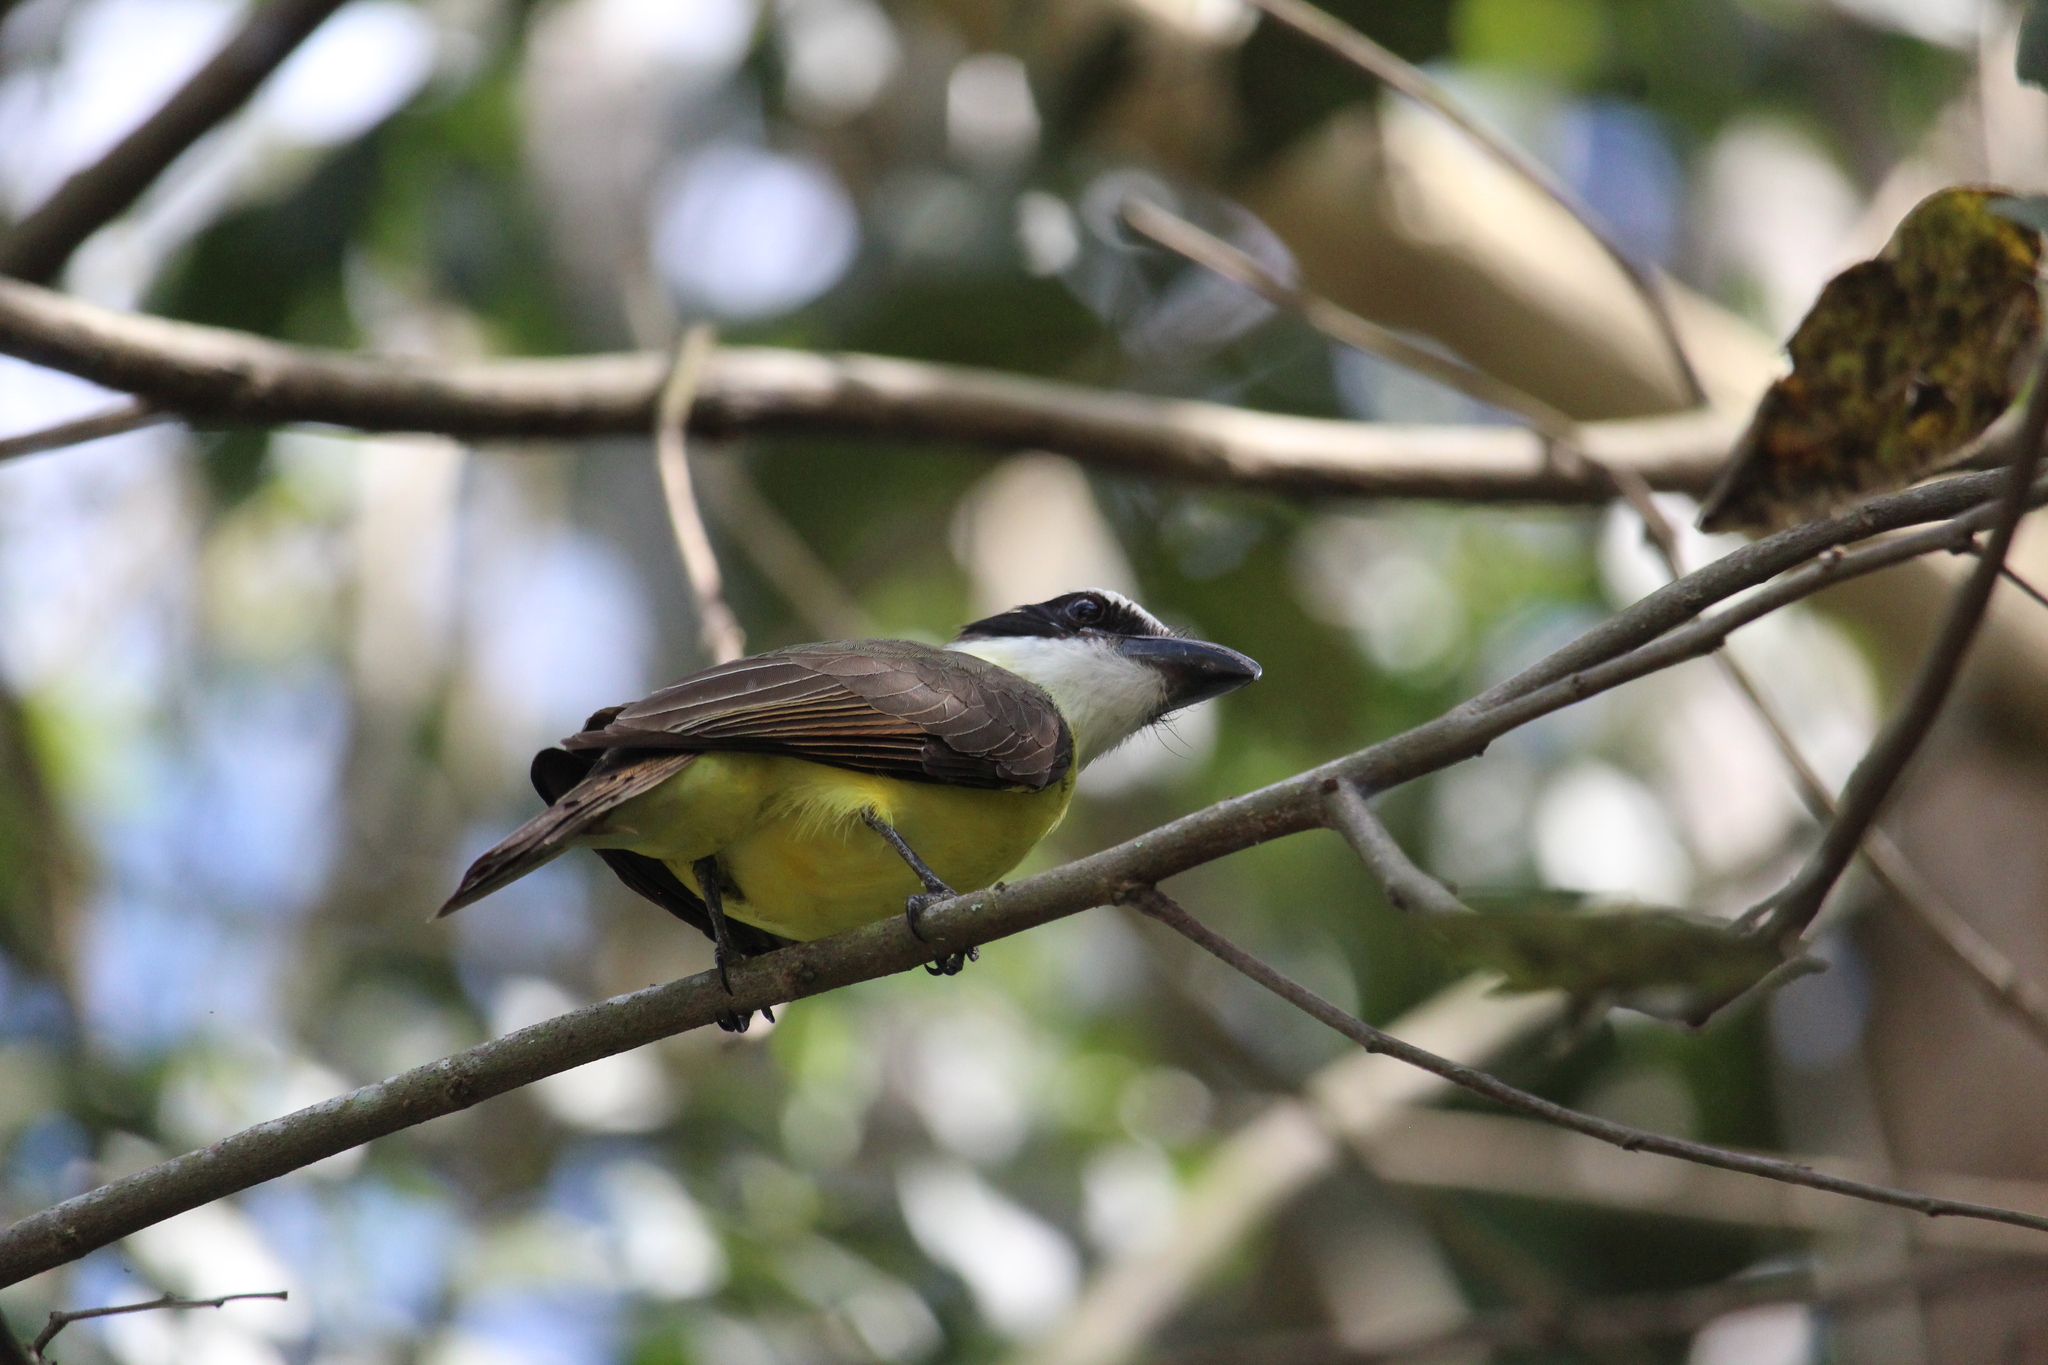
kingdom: Animalia
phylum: Chordata
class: Aves
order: Passeriformes
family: Tyrannidae
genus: Megarynchus
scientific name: Megarynchus pitangua
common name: Boat-billed flycatcher
